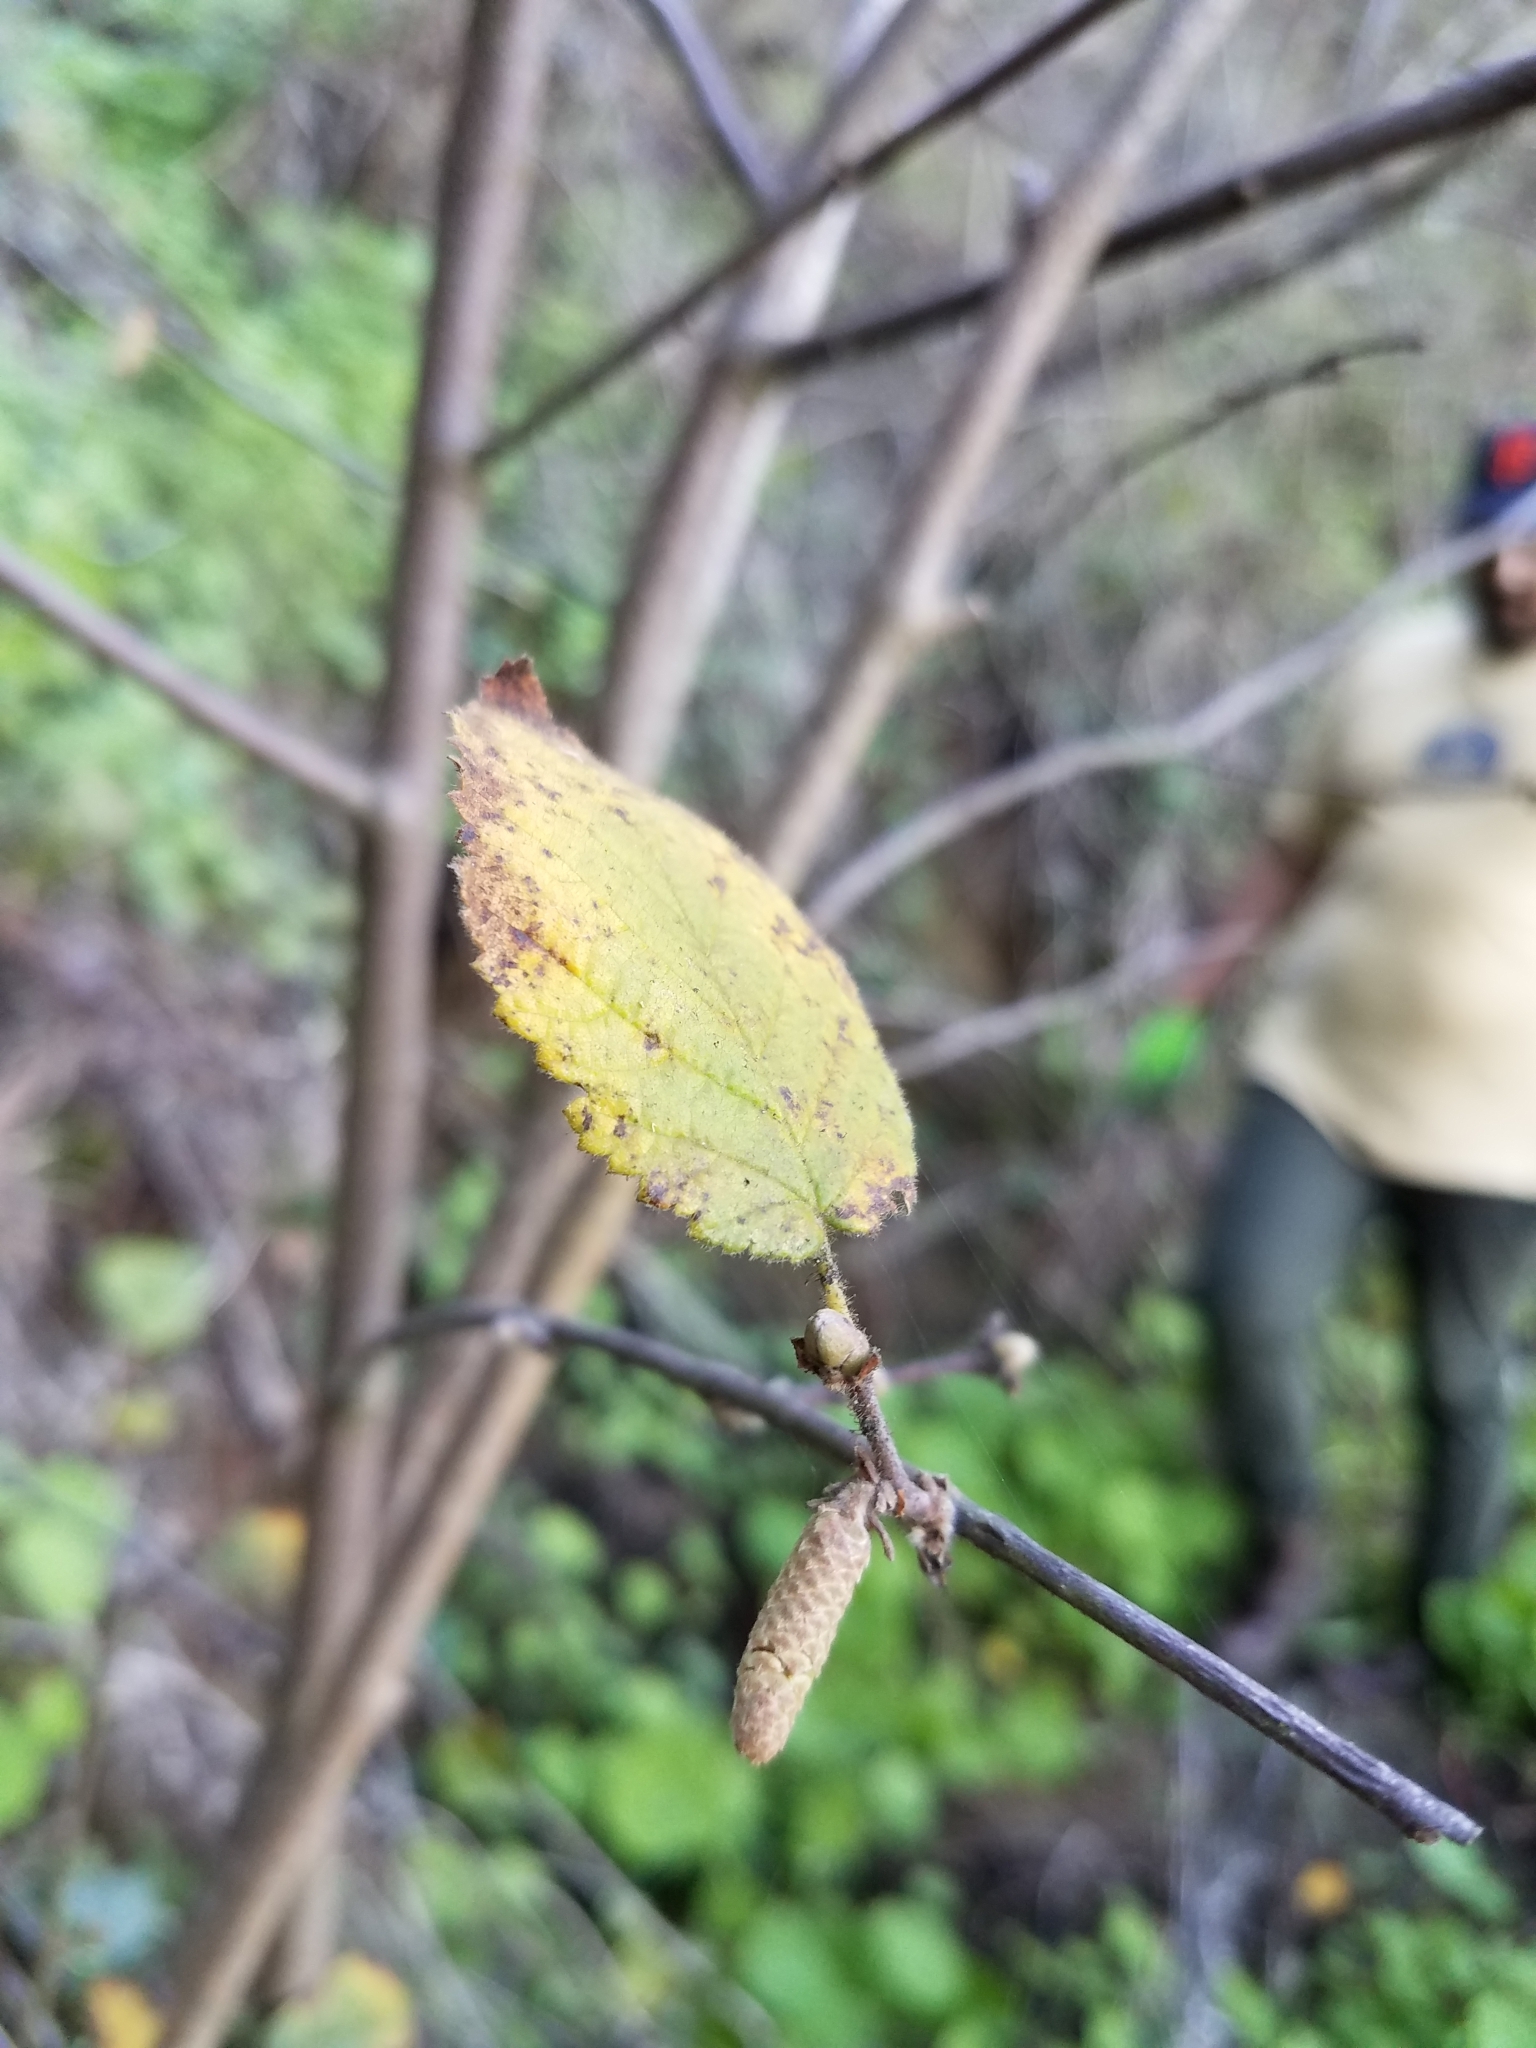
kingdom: Plantae
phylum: Tracheophyta
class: Magnoliopsida
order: Fagales
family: Betulaceae
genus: Corylus
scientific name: Corylus cornuta
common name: Beaked hazel
